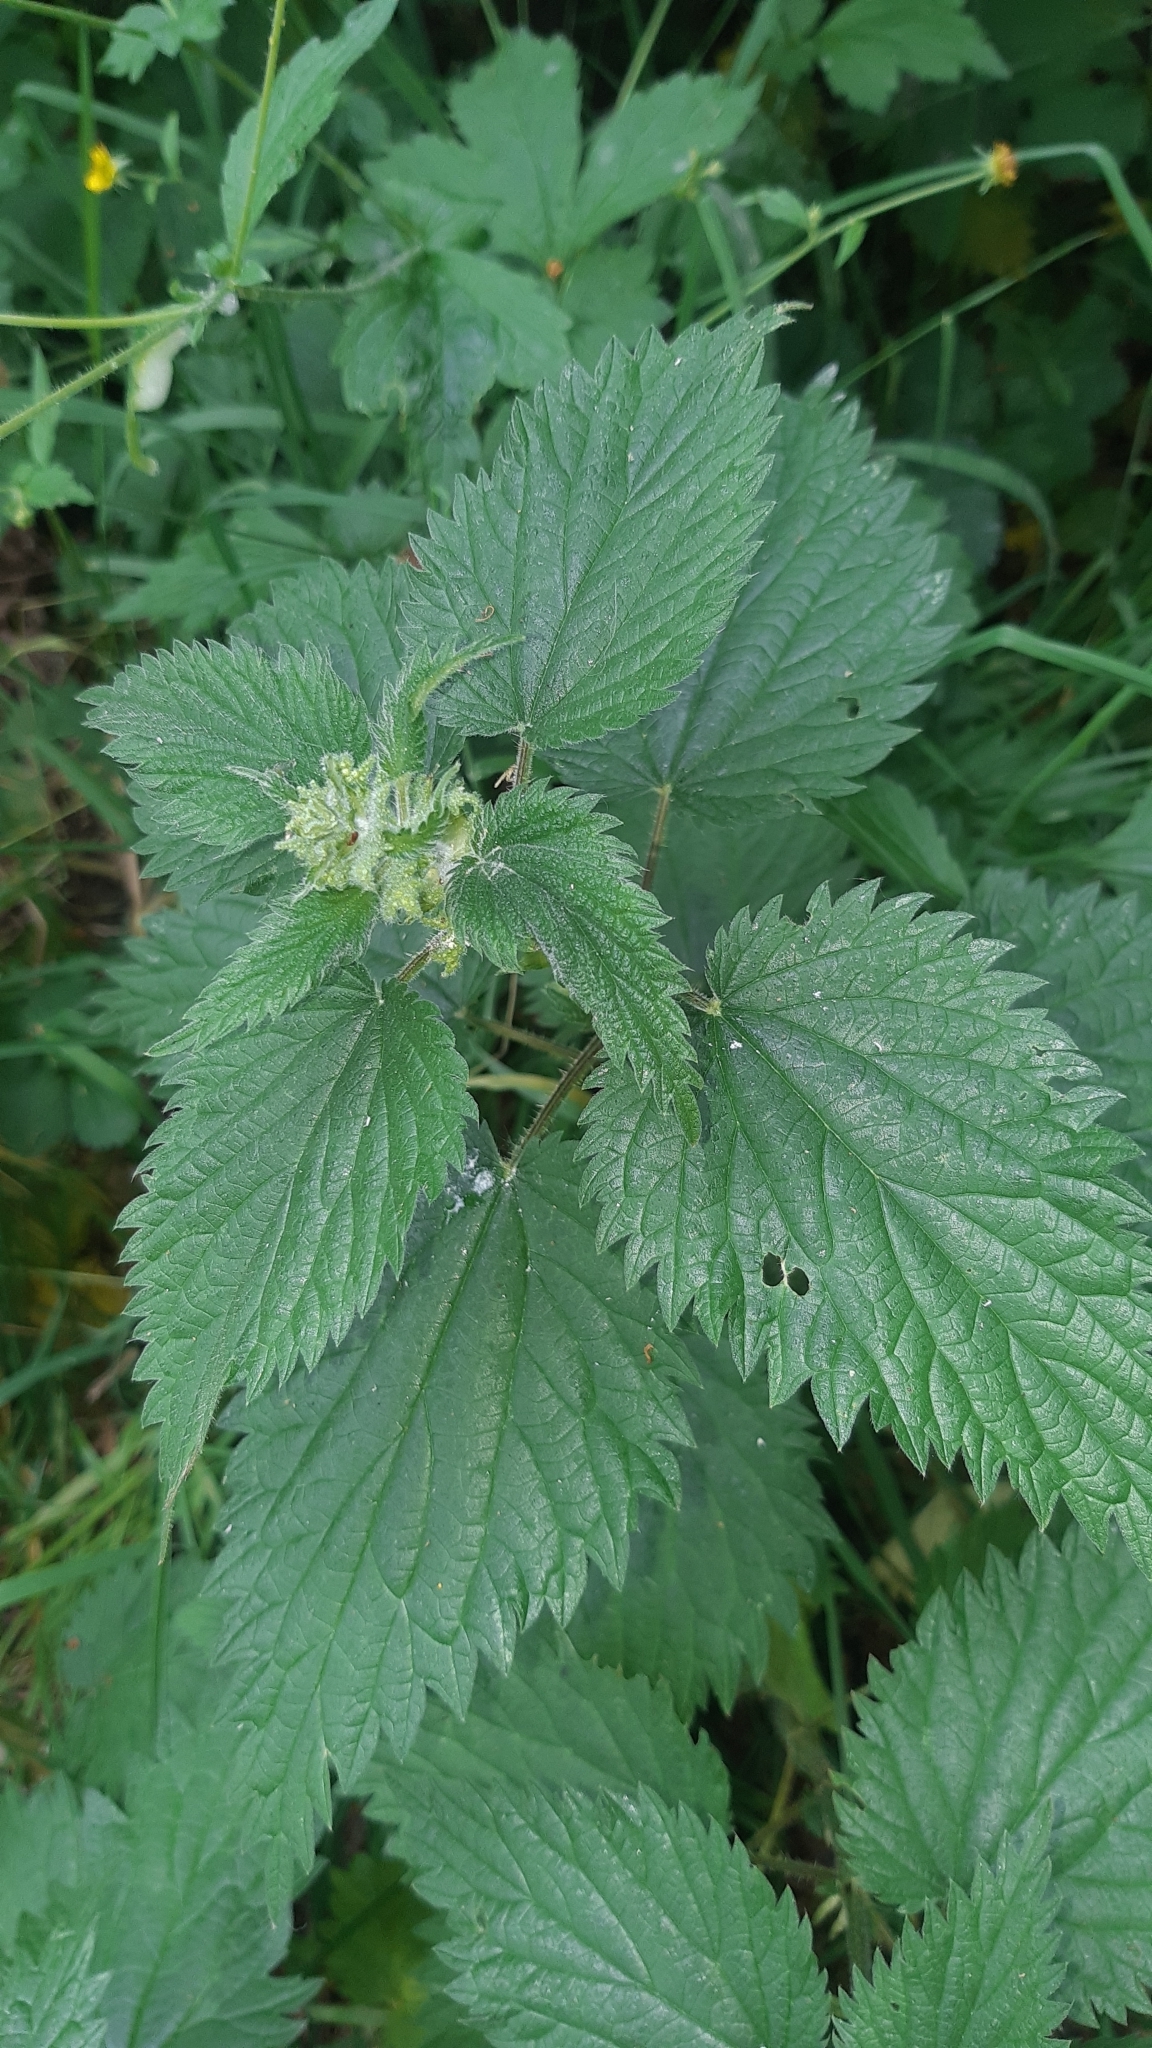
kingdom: Plantae
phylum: Tracheophyta
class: Magnoliopsida
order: Rosales
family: Urticaceae
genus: Urtica
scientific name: Urtica dioica
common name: Common nettle
